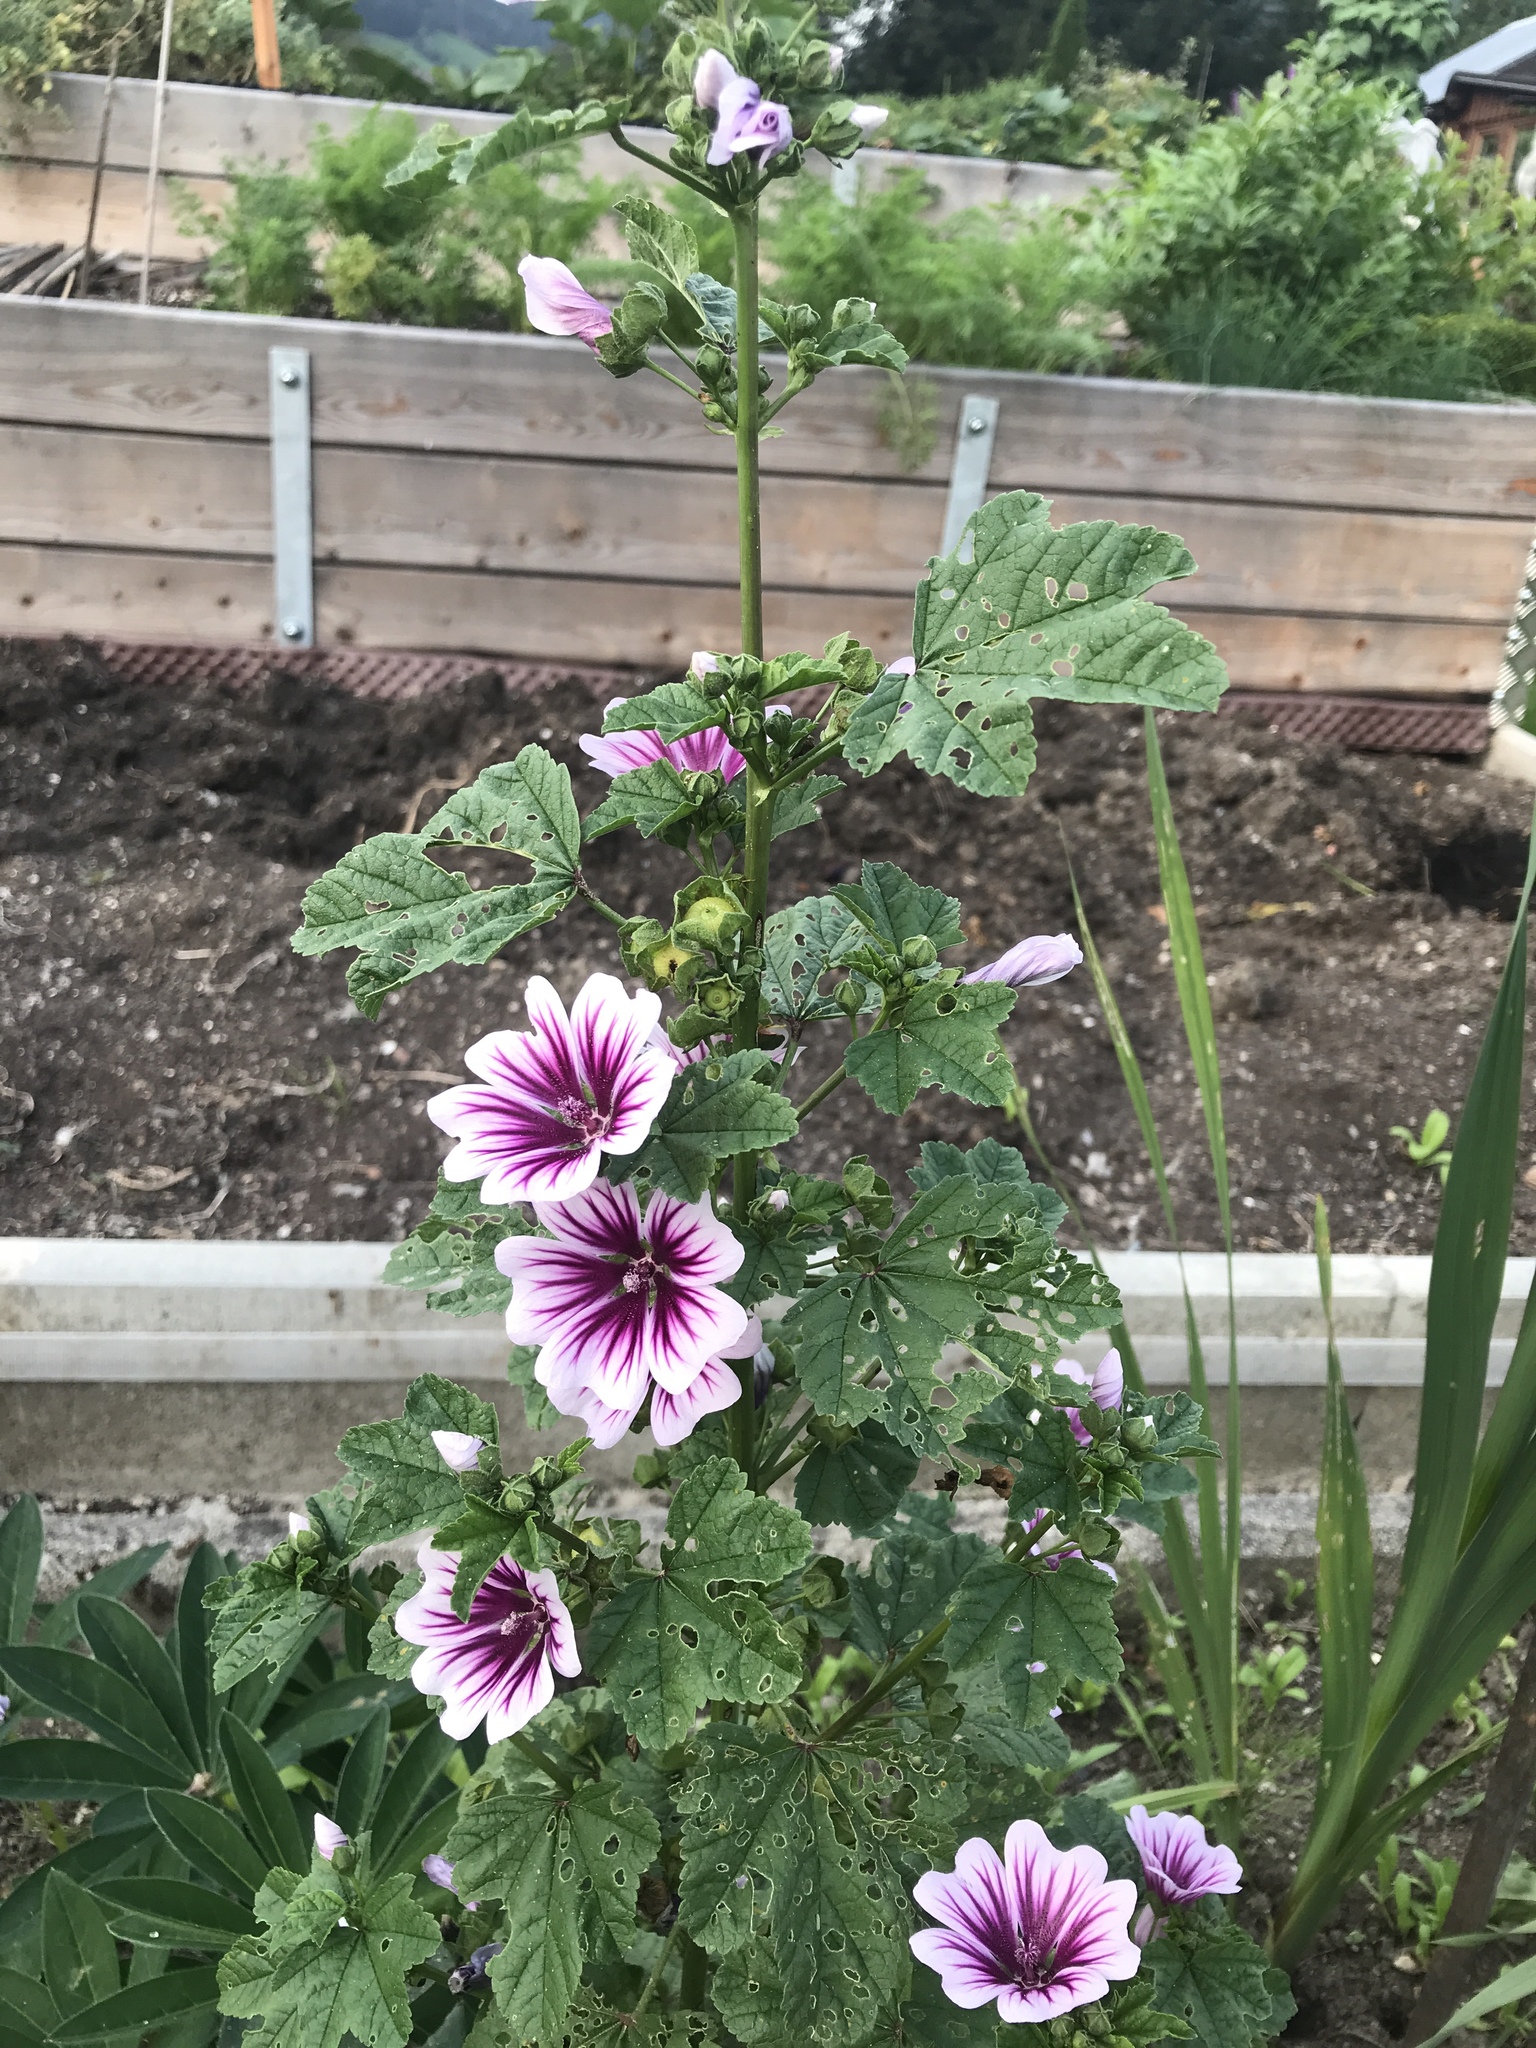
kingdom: Plantae
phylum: Tracheophyta
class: Magnoliopsida
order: Malvales
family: Malvaceae
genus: Malva
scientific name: Malva sylvestris
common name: Common mallow
